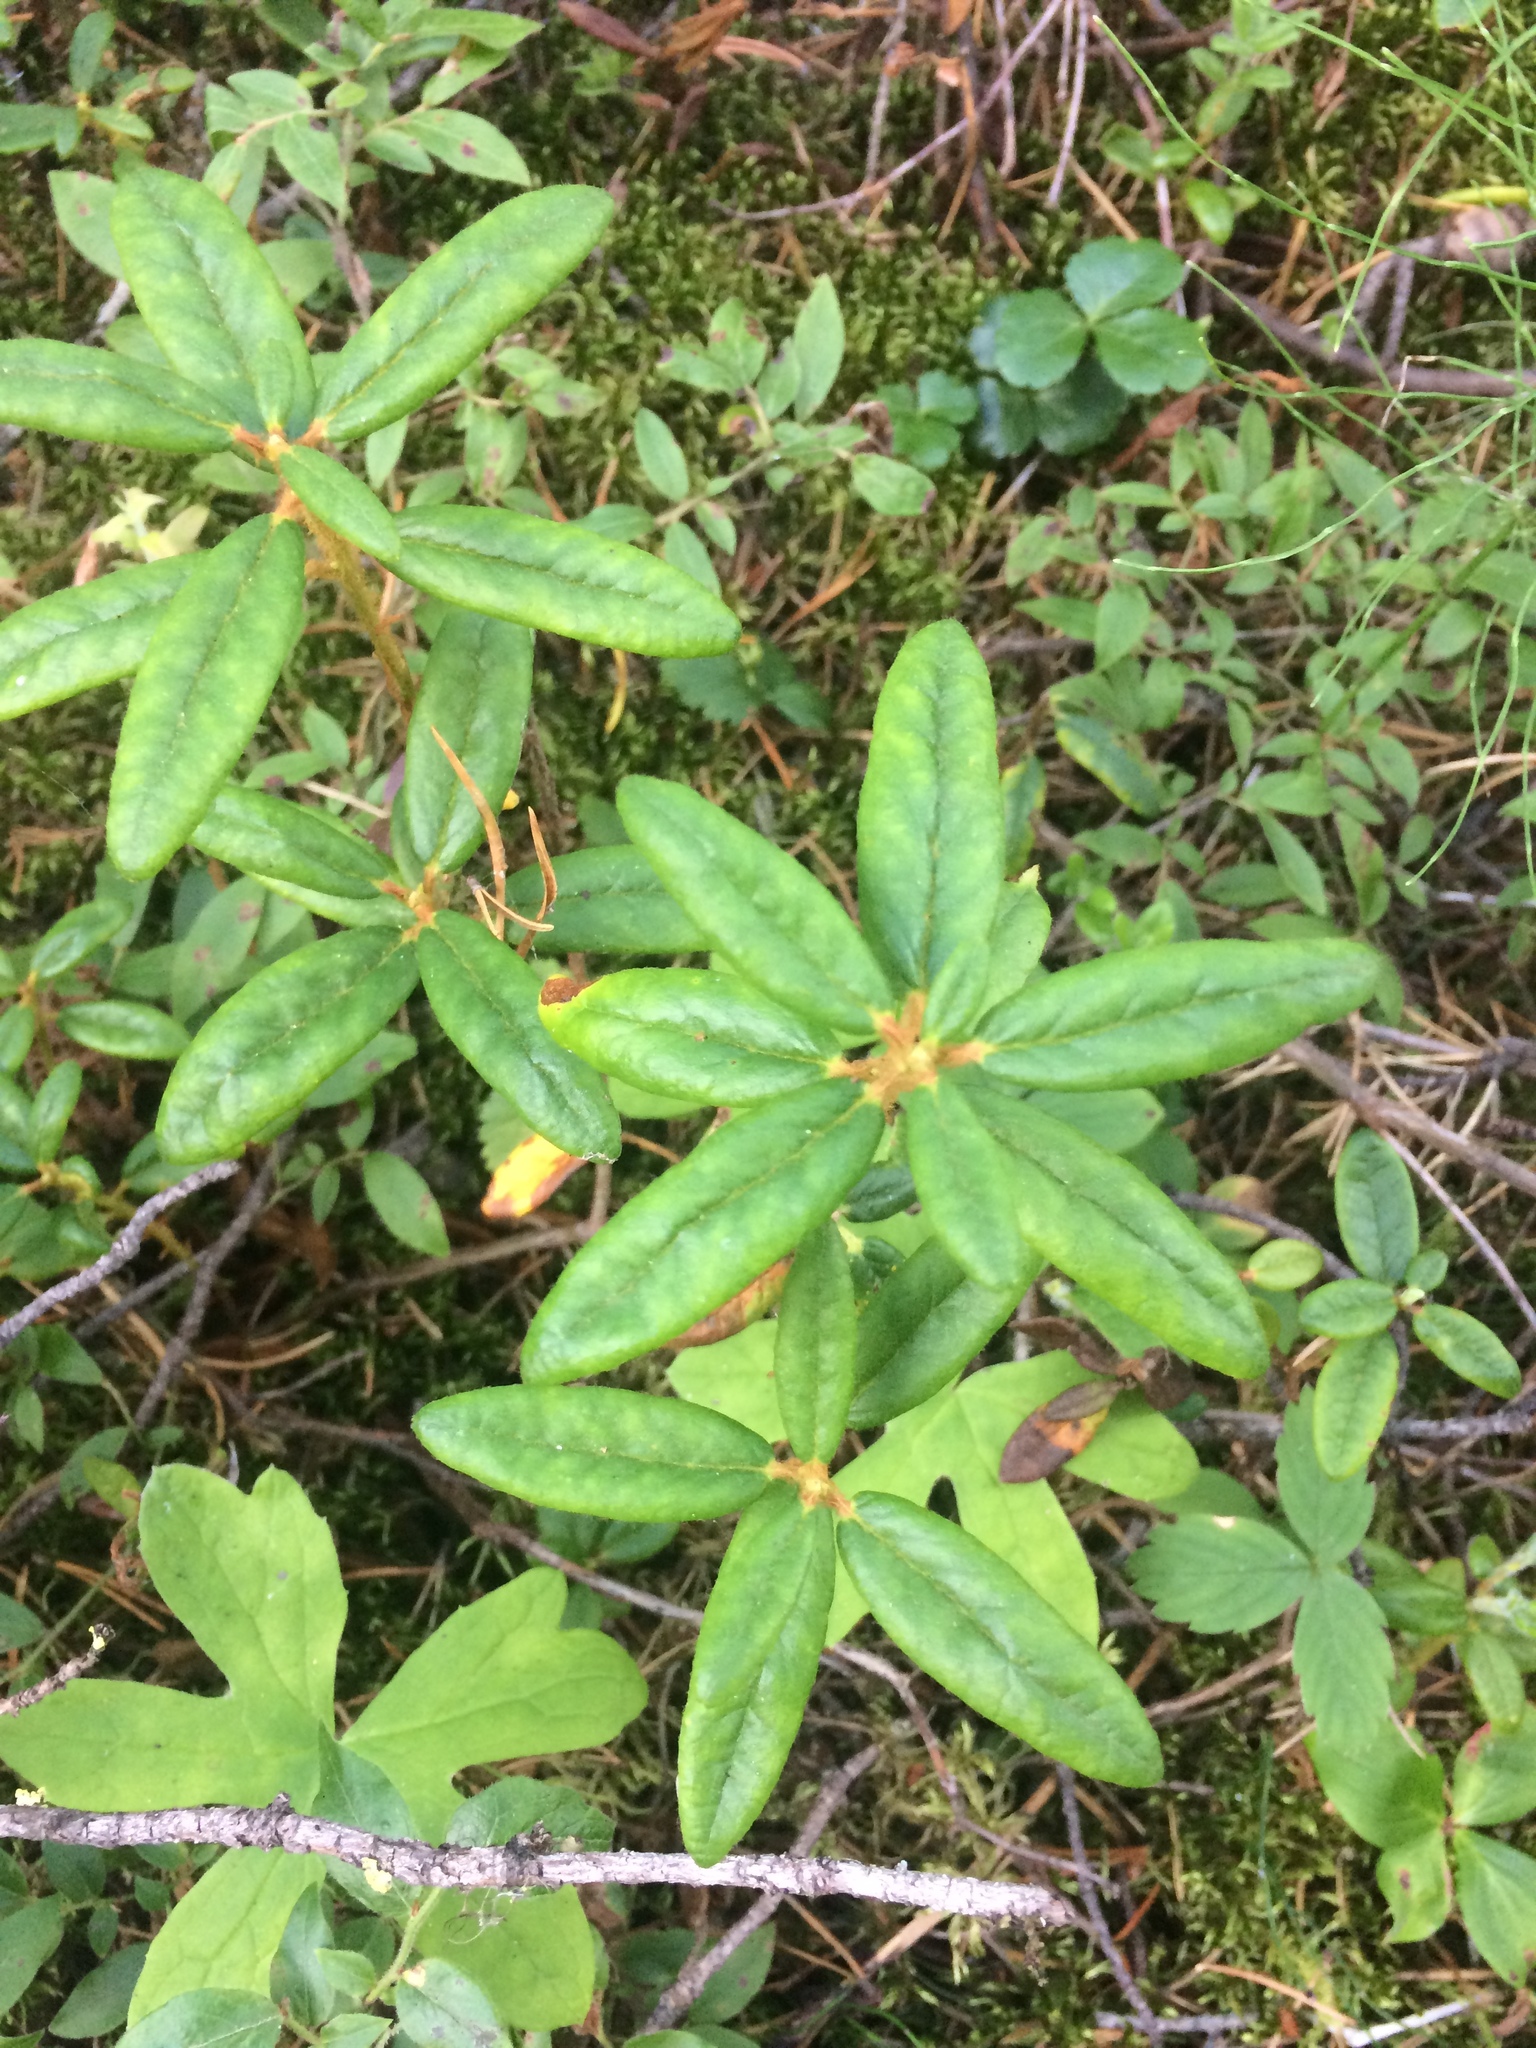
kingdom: Plantae
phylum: Tracheophyta
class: Magnoliopsida
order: Ericales
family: Ericaceae
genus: Rhododendron
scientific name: Rhododendron groenlandicum
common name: Bog labrador tea
